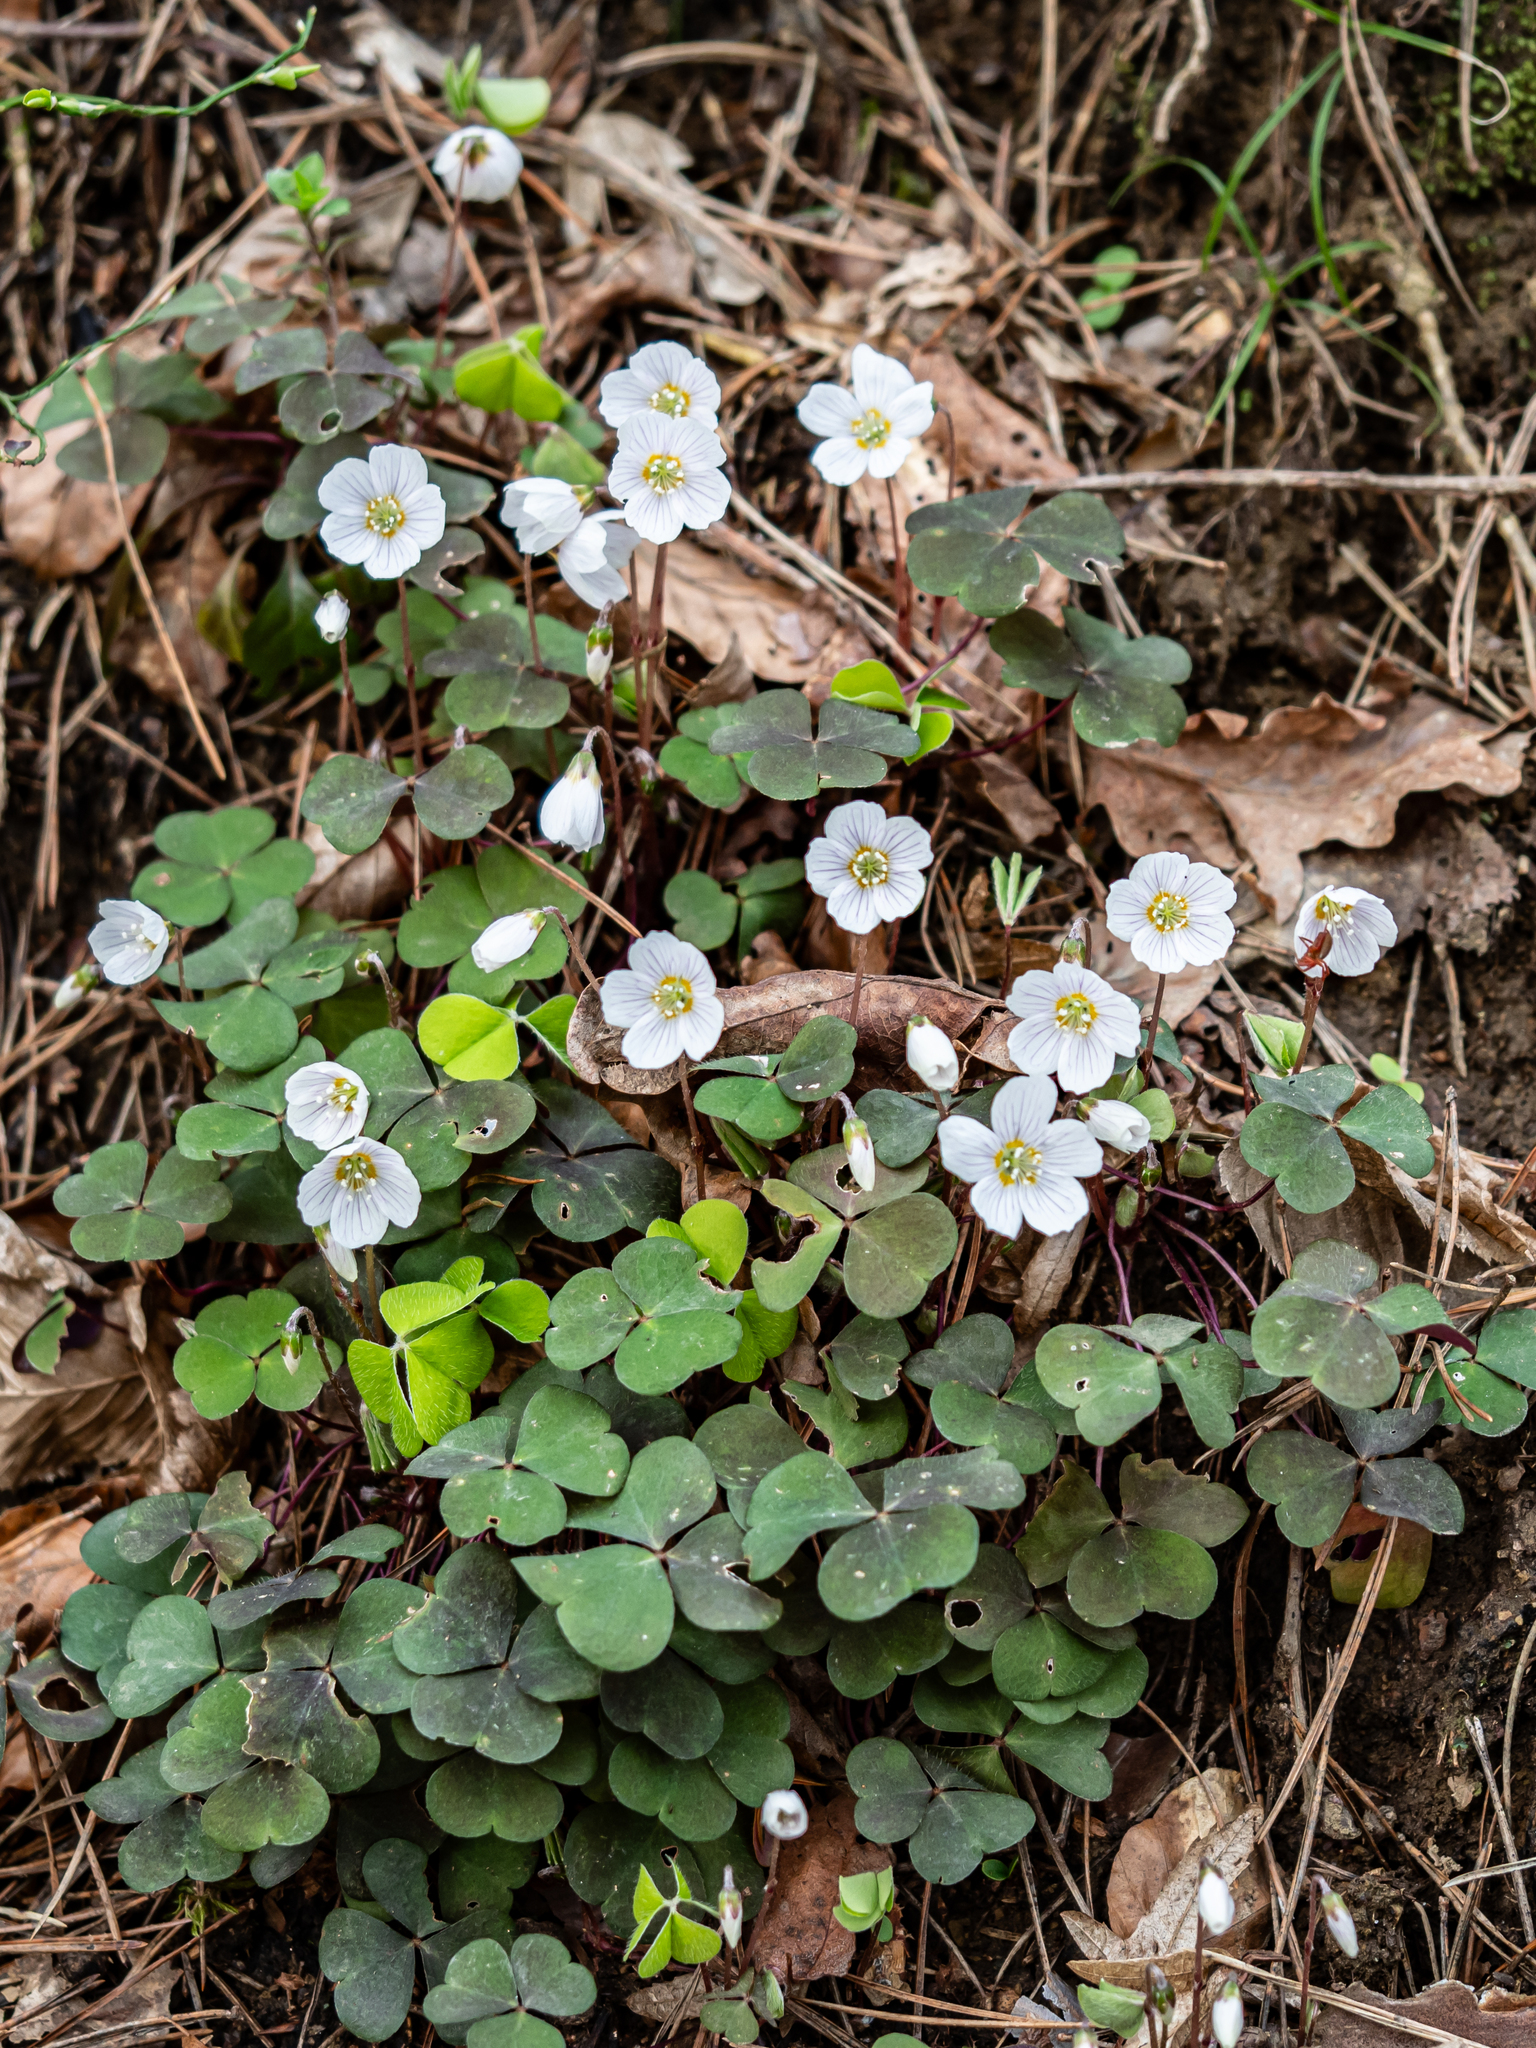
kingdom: Plantae
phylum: Tracheophyta
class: Magnoliopsida
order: Oxalidales
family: Oxalidaceae
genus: Oxalis
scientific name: Oxalis acetosella
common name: Wood-sorrel
